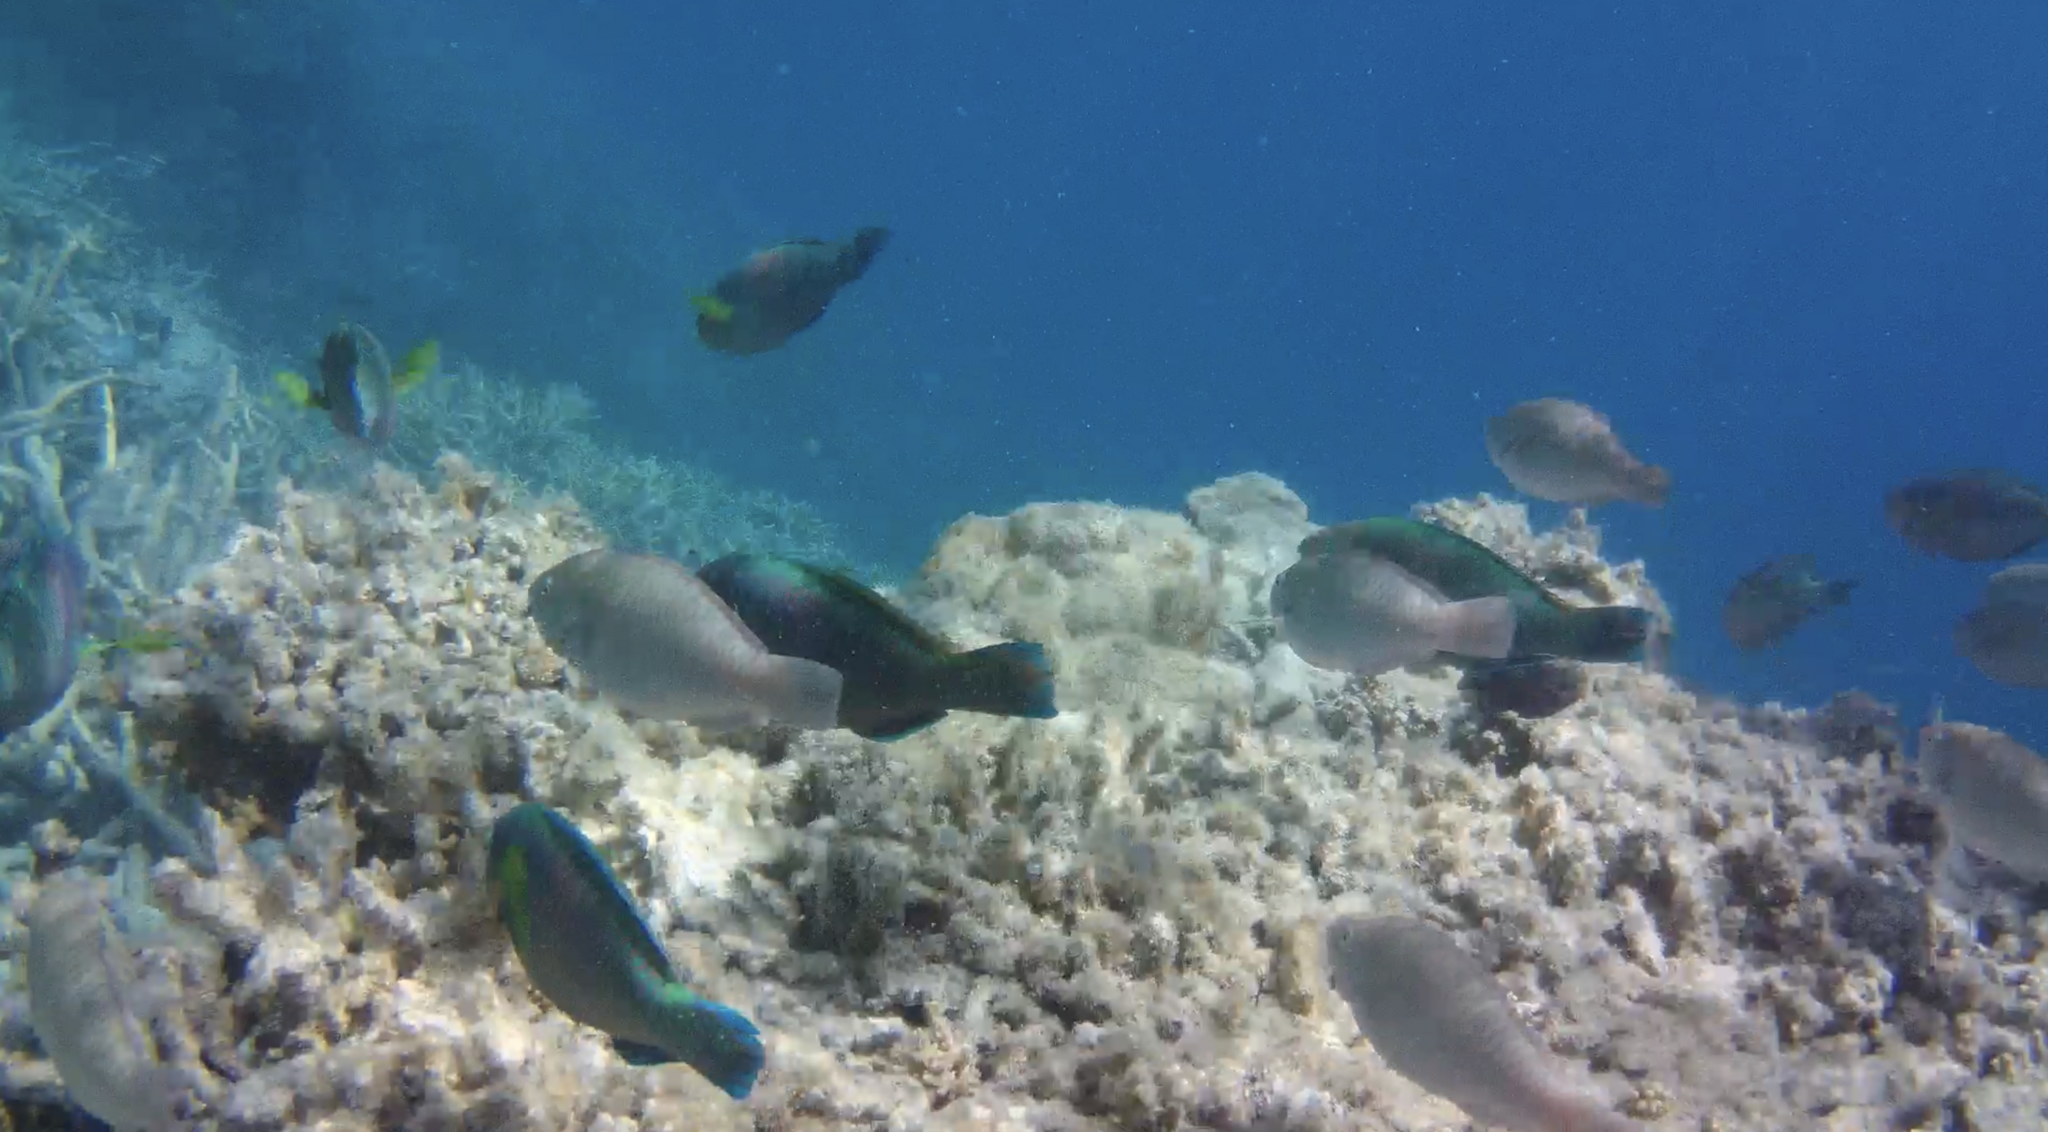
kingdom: Animalia
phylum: Chordata
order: Perciformes
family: Scaridae
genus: Scarus
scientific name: Scarus rivulatus
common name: Surf parrotfish
